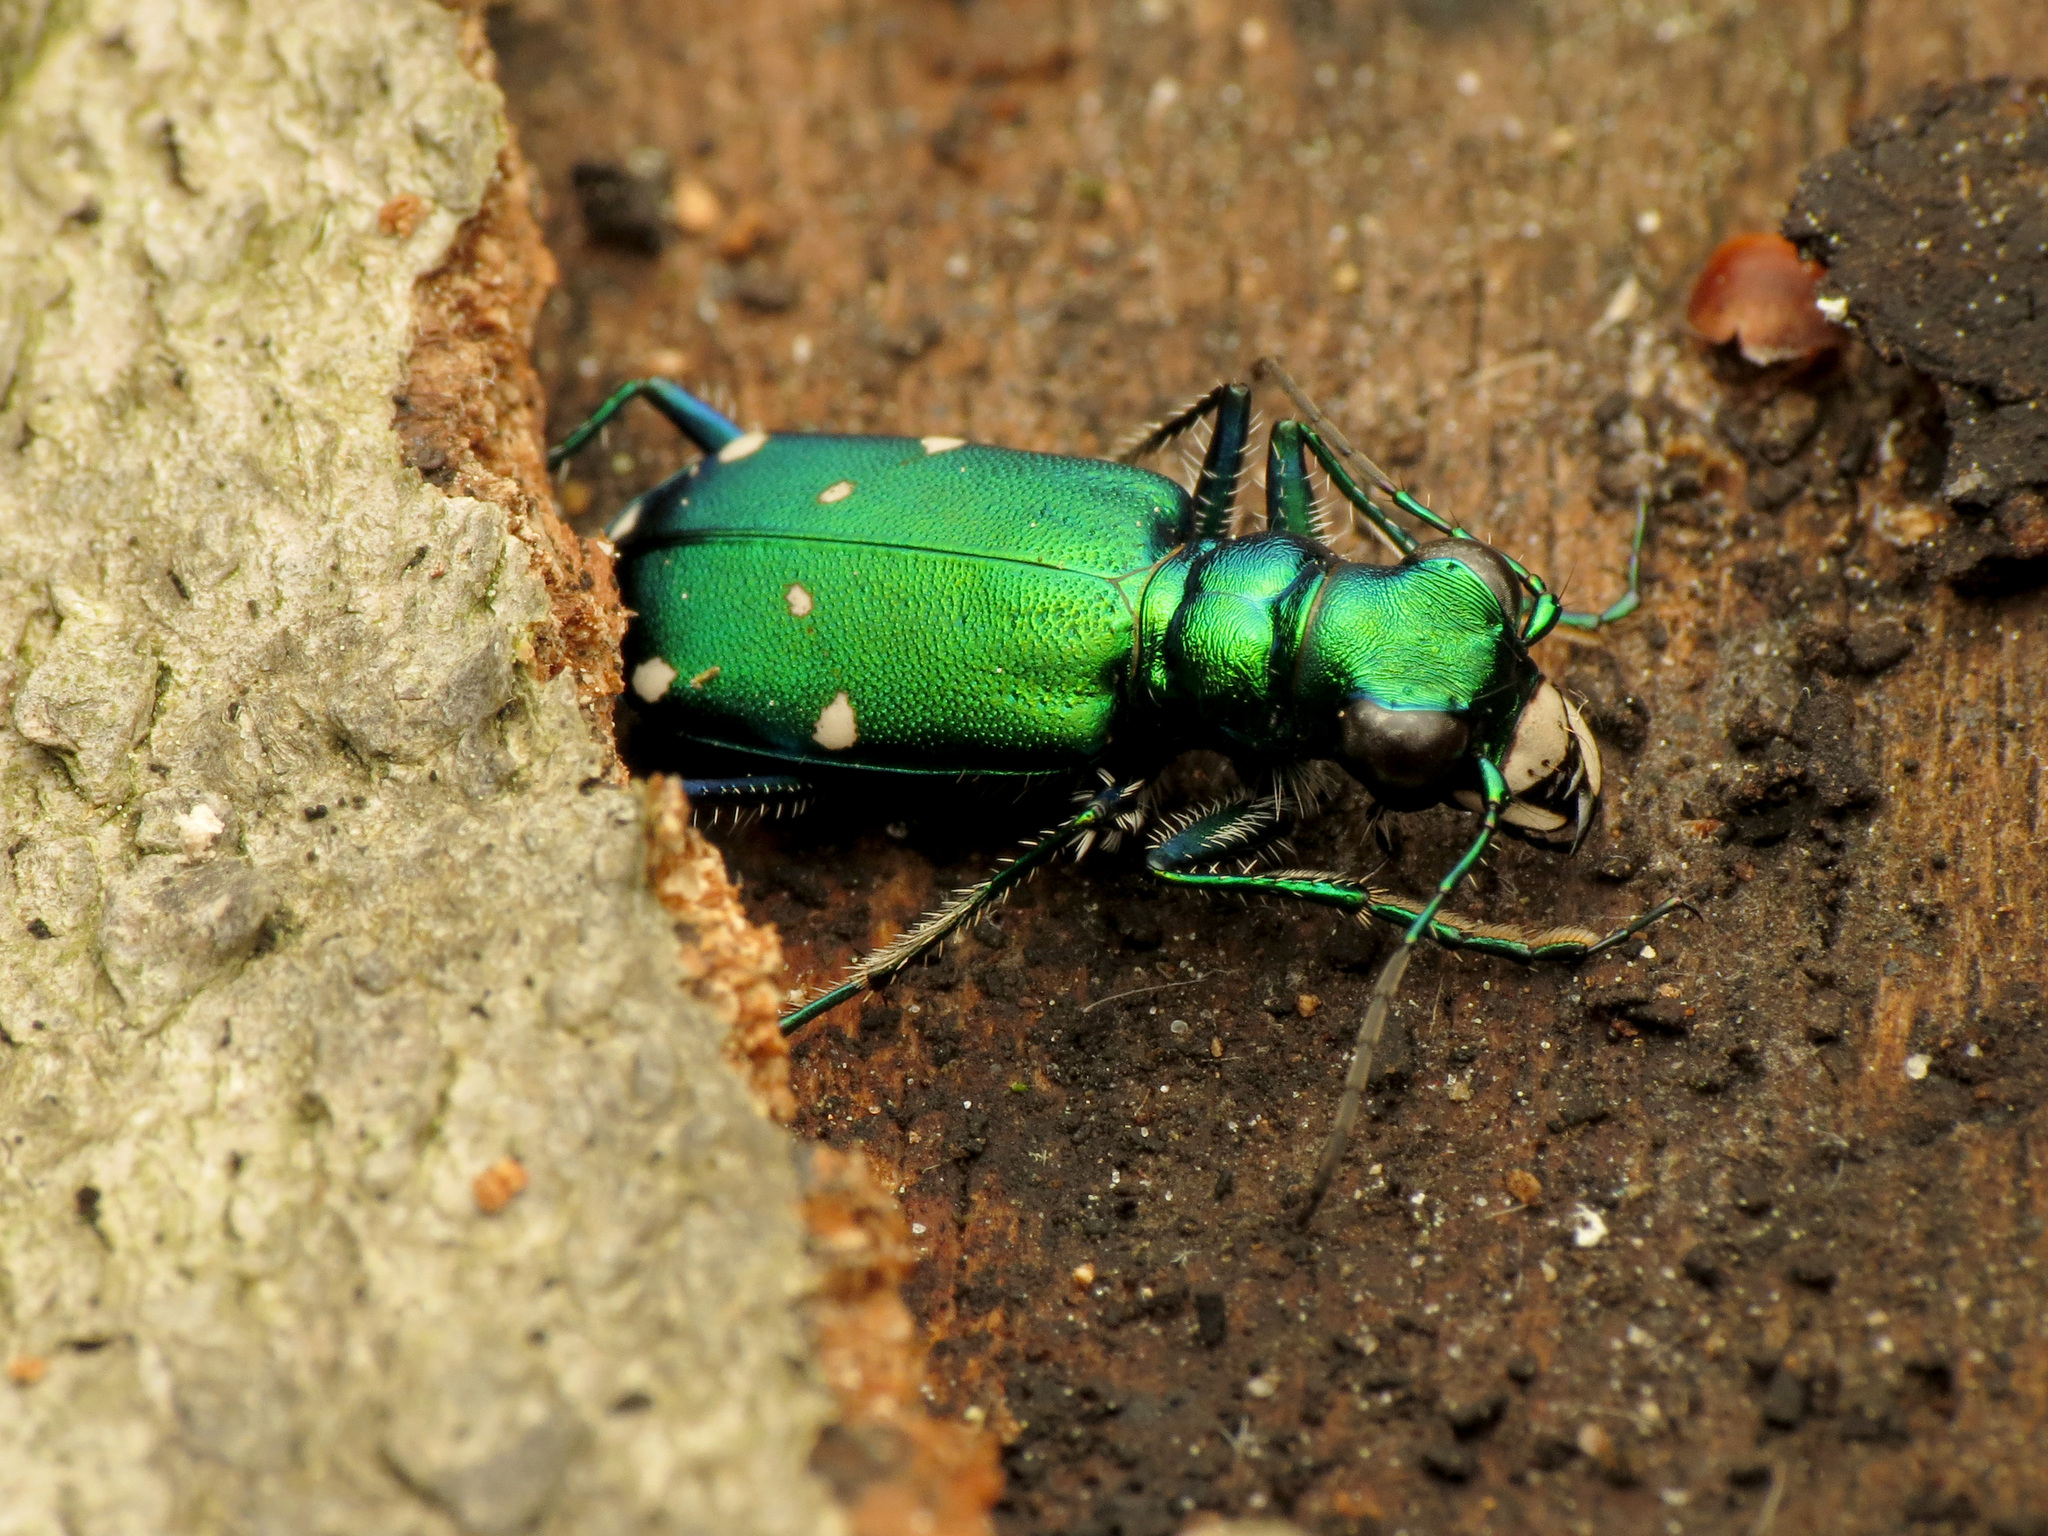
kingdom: Animalia
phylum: Arthropoda
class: Insecta
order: Coleoptera
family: Carabidae
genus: Cicindela
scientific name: Cicindela sexguttata
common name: Six-spotted tiger beetle
